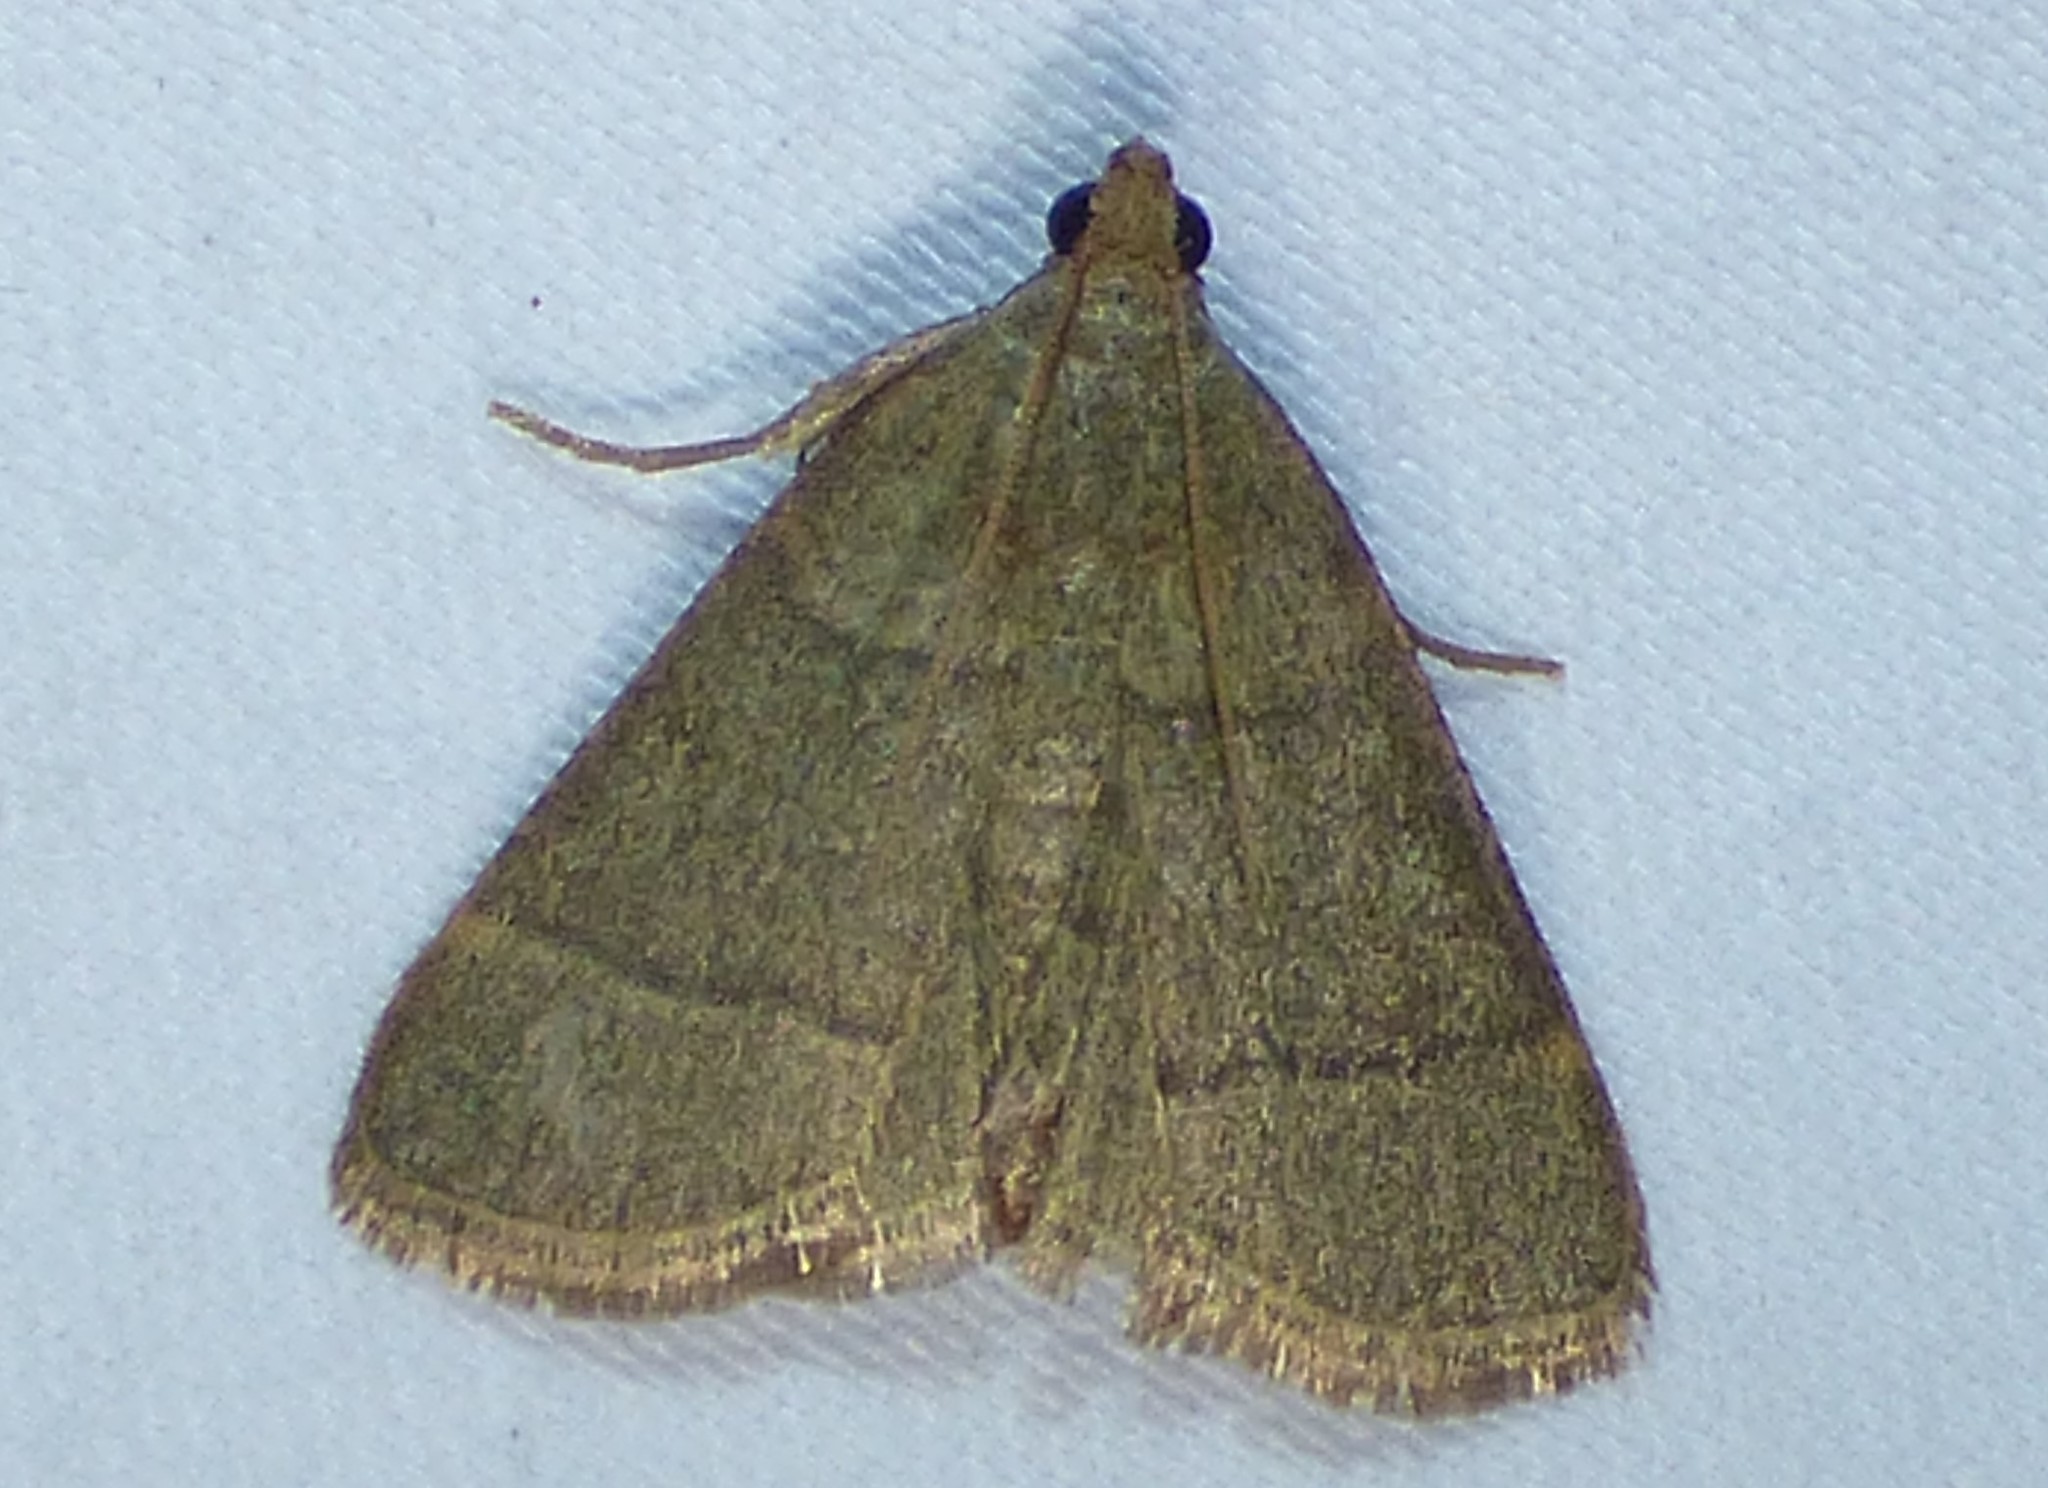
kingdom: Animalia
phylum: Arthropoda
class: Insecta
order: Lepidoptera
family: Pyralidae
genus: Hypsopygia
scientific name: Hypsopygia nostralis
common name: Southern hayworm moth
